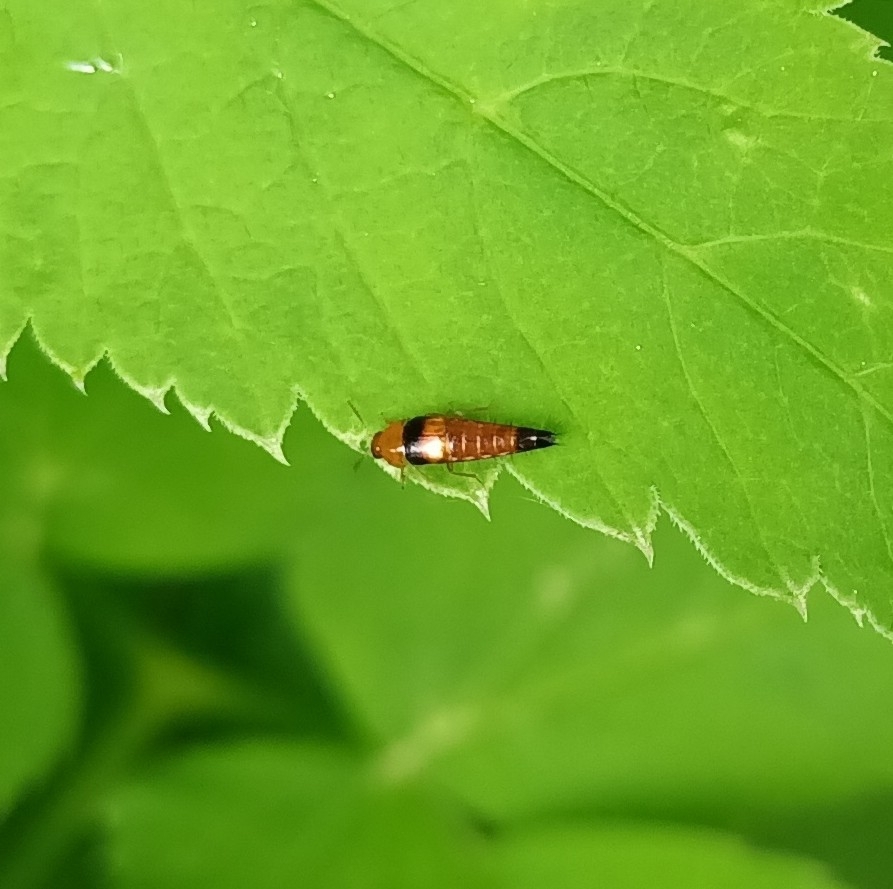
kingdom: Animalia
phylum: Arthropoda
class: Insecta
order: Coleoptera
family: Staphylinidae
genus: Tachyporus
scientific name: Tachyporus obtusus
